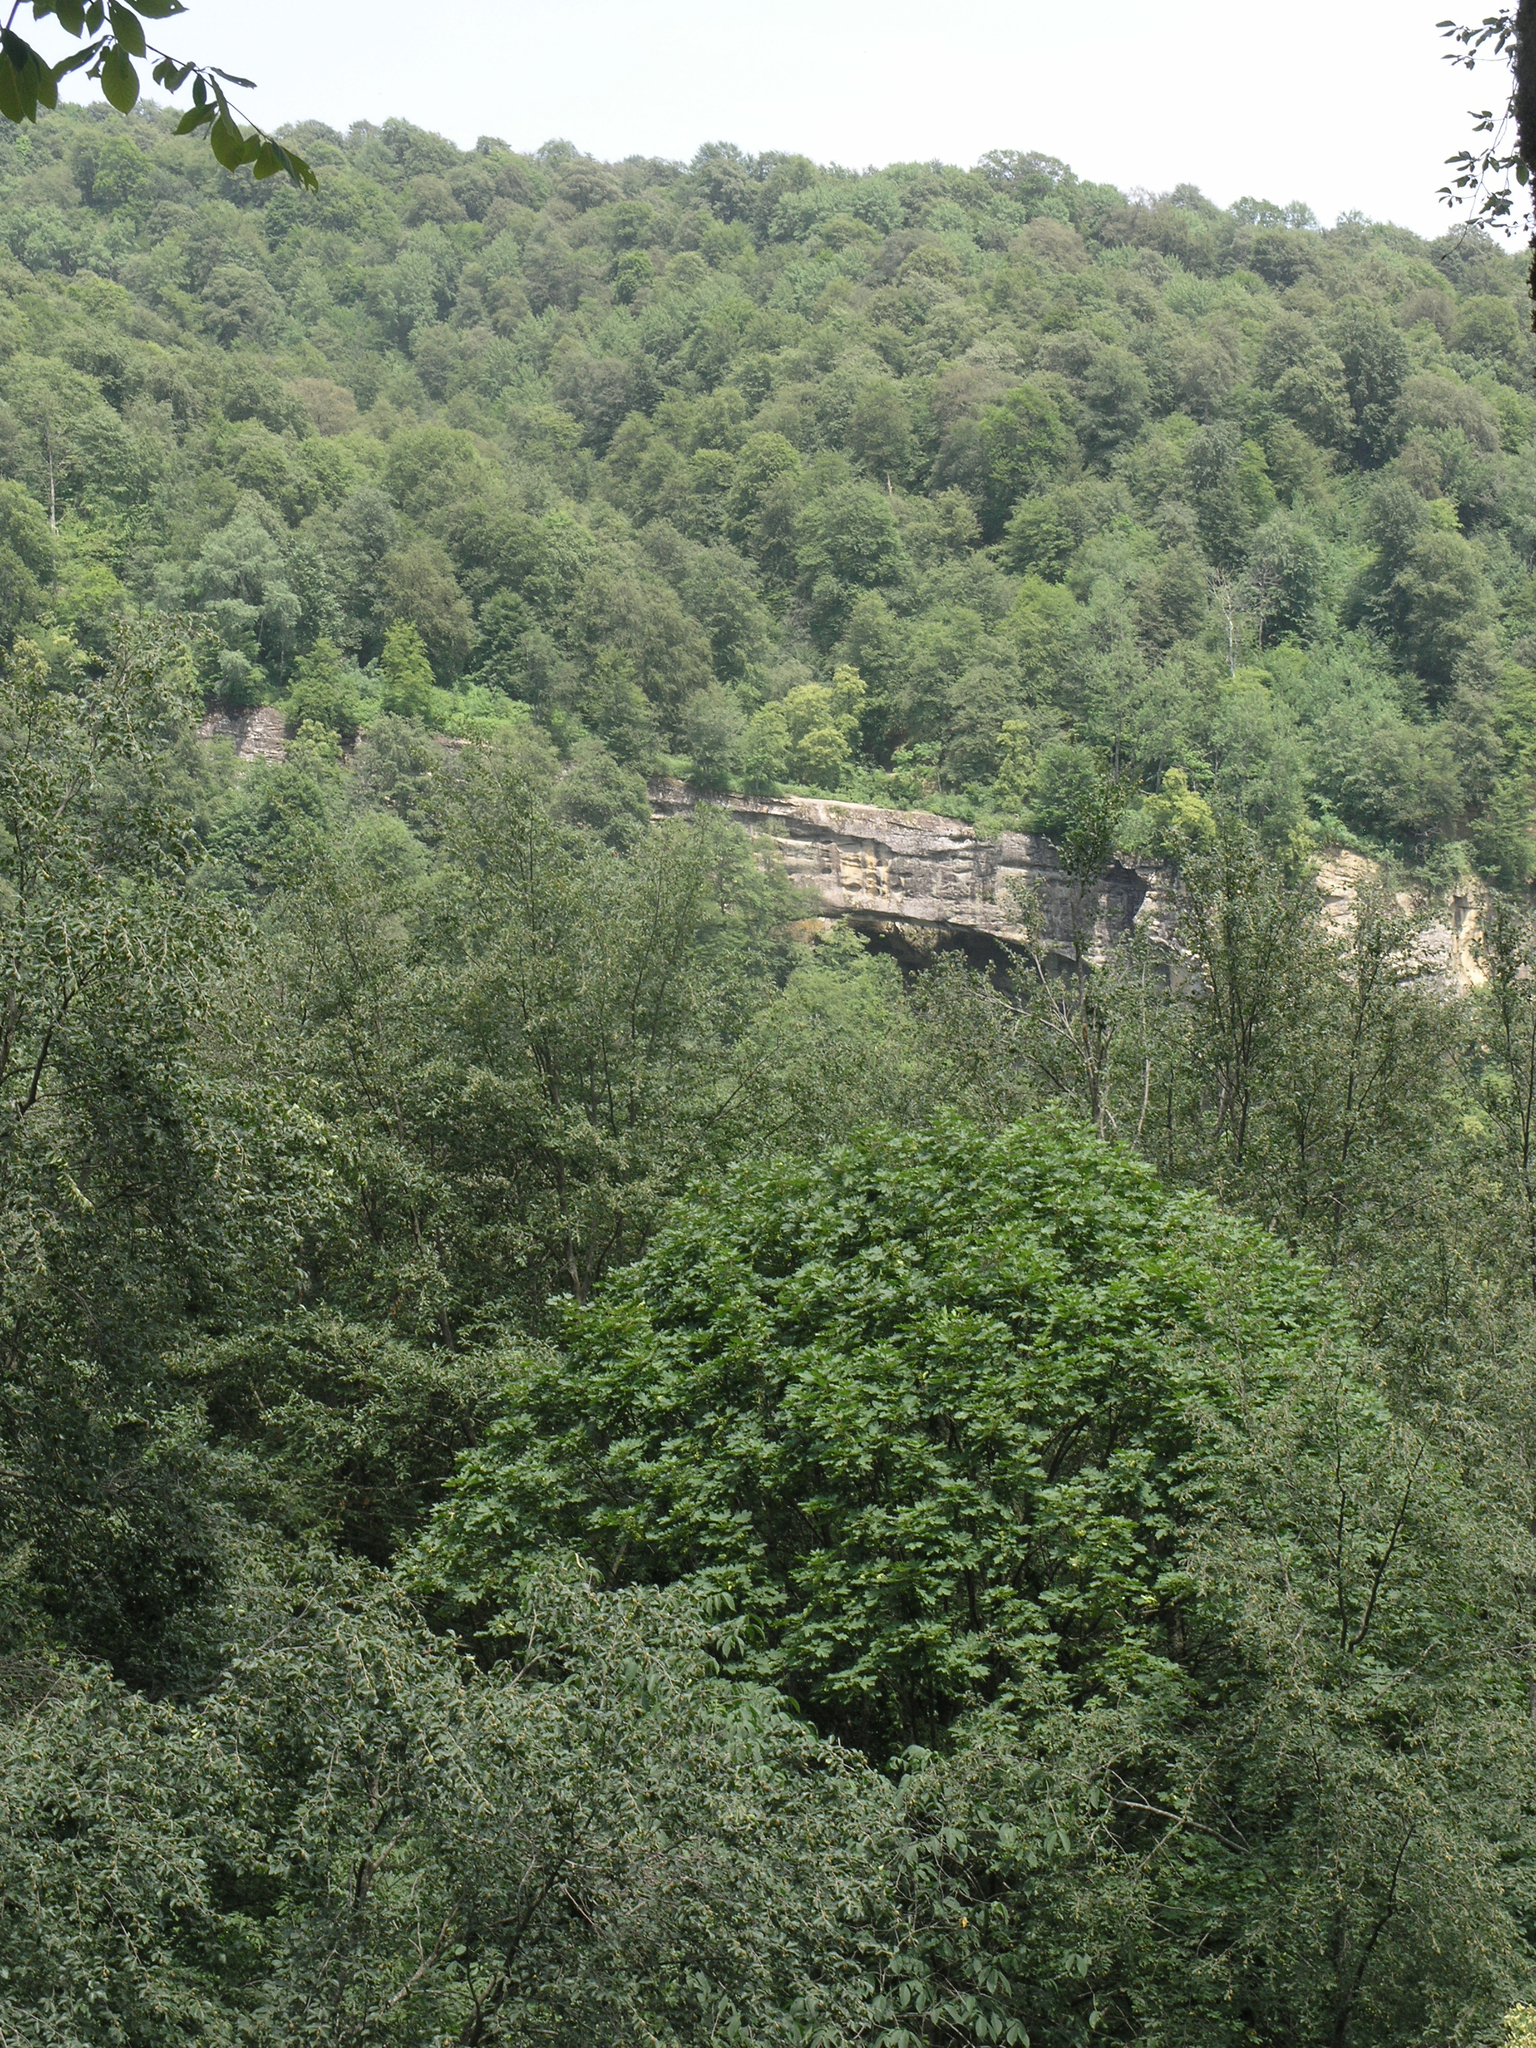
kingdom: Plantae
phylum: Tracheophyta
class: Magnoliopsida
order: Sapindales
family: Sapindaceae
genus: Acer
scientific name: Acer platanoides
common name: Norway maple
